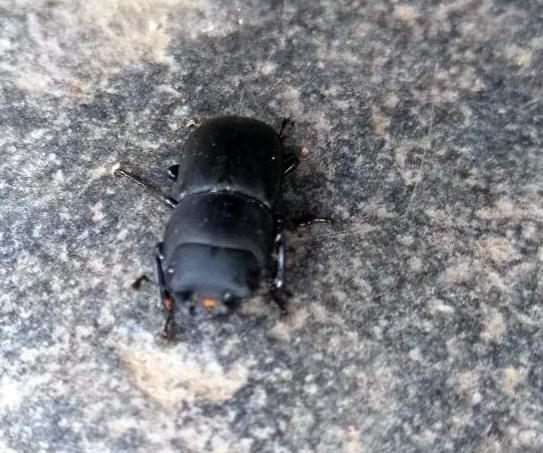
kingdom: Animalia
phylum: Arthropoda
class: Insecta
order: Coleoptera
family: Lucanidae
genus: Dorcus
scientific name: Dorcus parallelipipedus
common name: Lesser stag beetle
